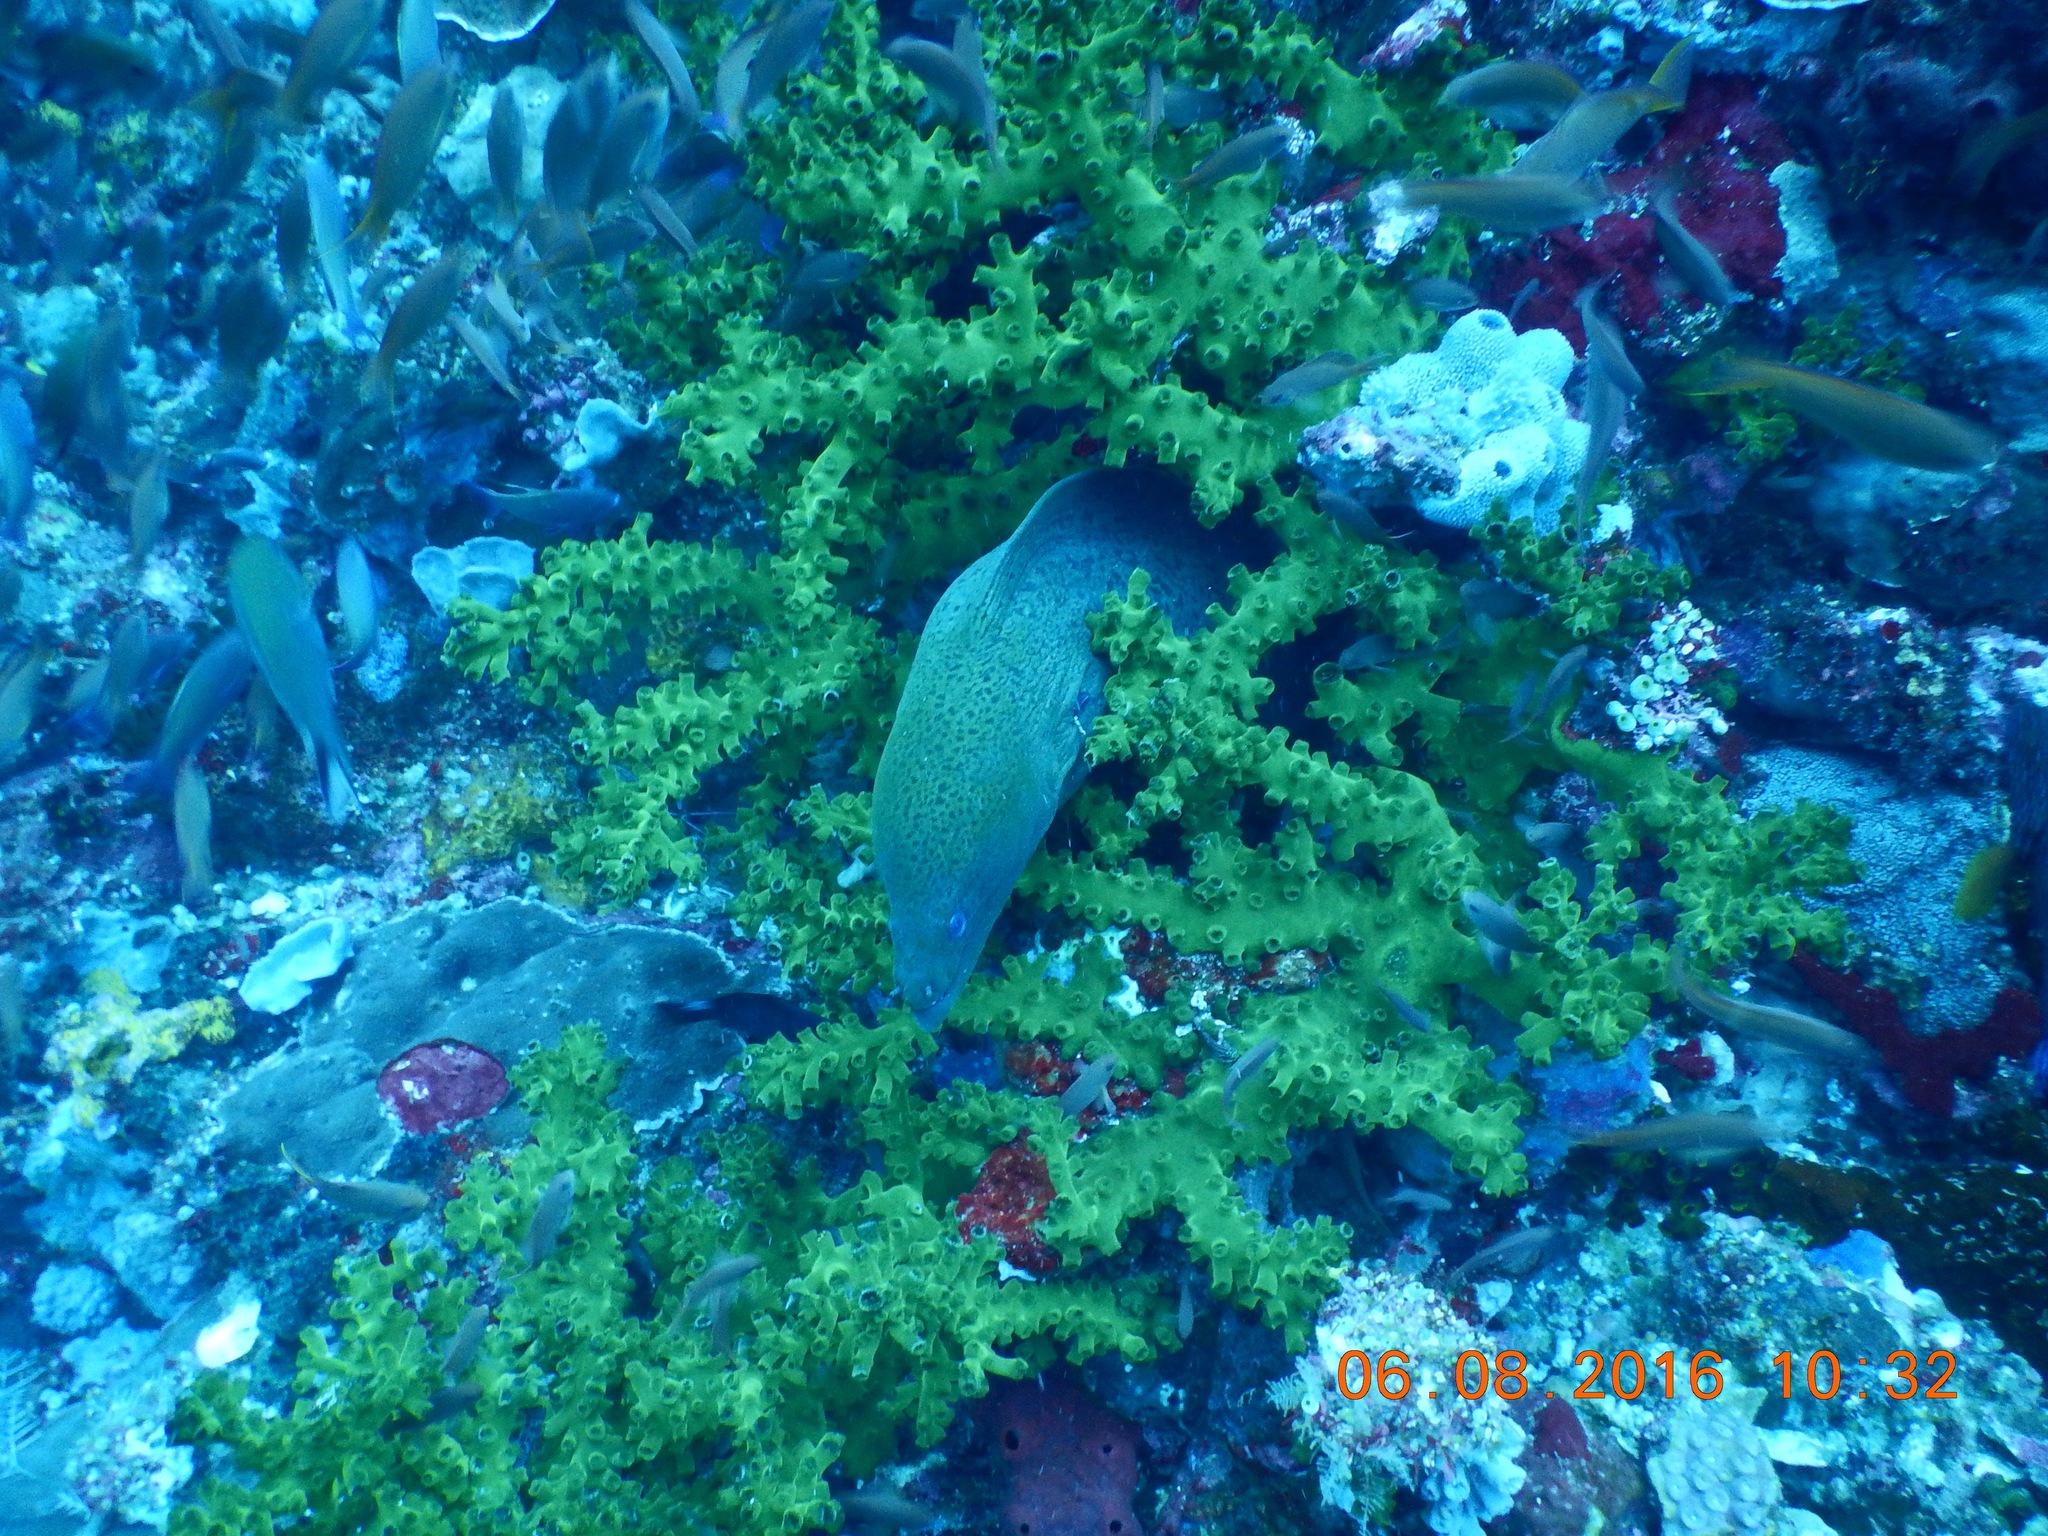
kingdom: Animalia
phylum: Chordata
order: Anguilliformes
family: Muraenidae
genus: Gymnothorax
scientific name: Gymnothorax javanicus
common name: Giant moray
